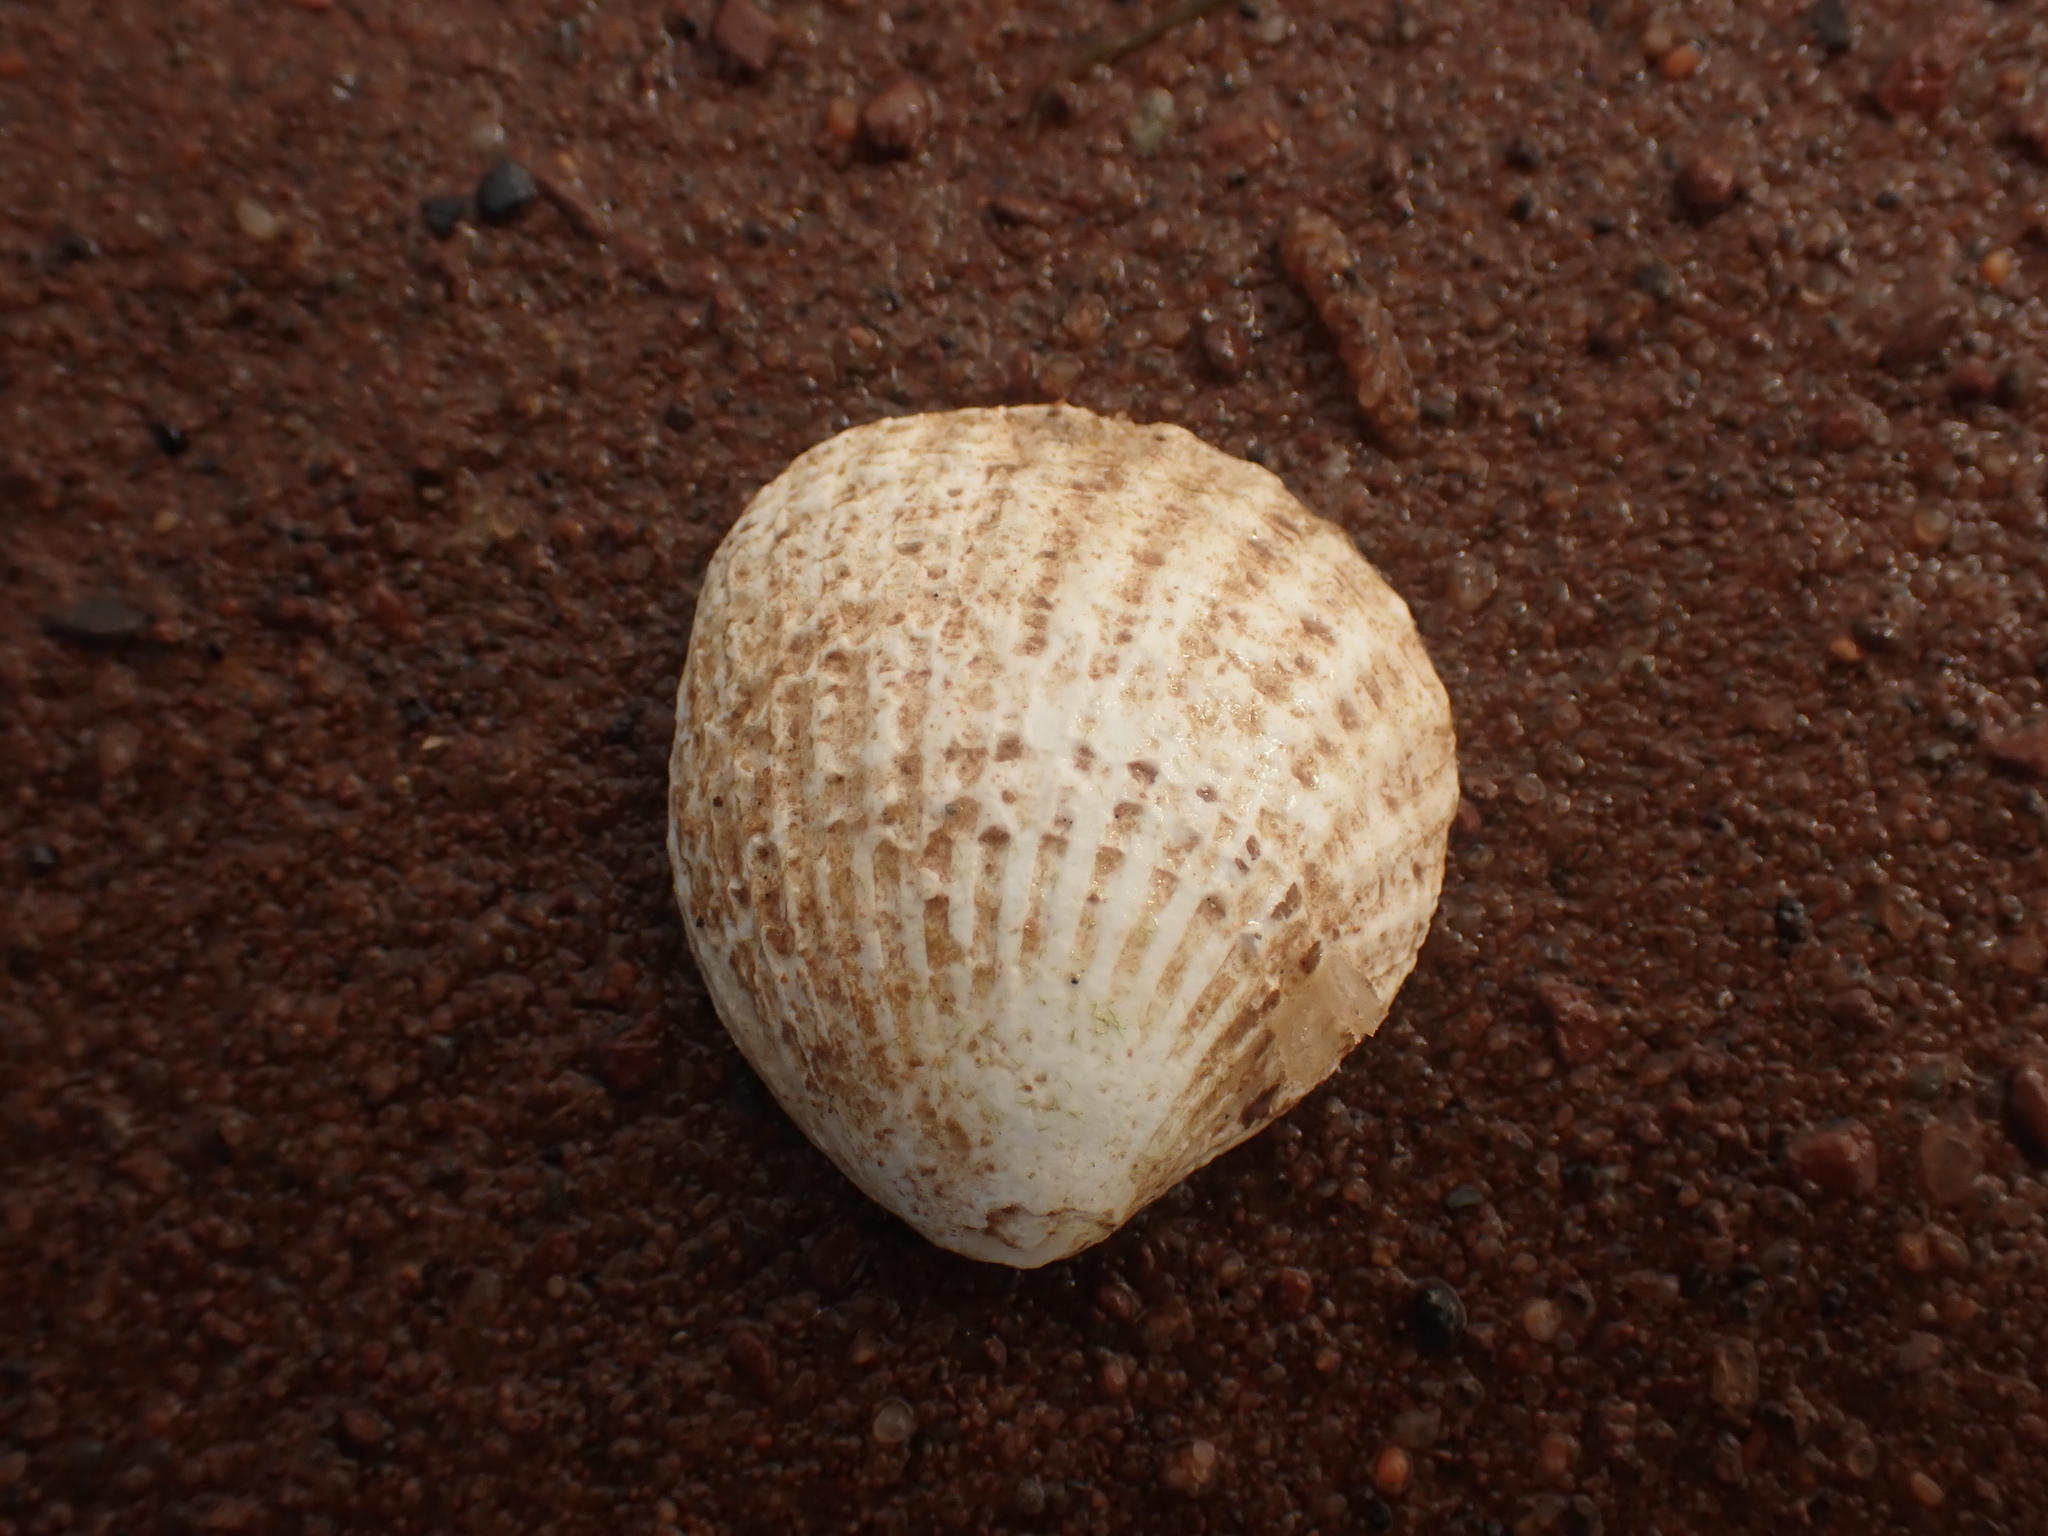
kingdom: Animalia
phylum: Mollusca
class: Bivalvia
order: Carditida
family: Carditidae
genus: Cyclocardia
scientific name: Cyclocardia borealis
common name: Northern cyclocardia
